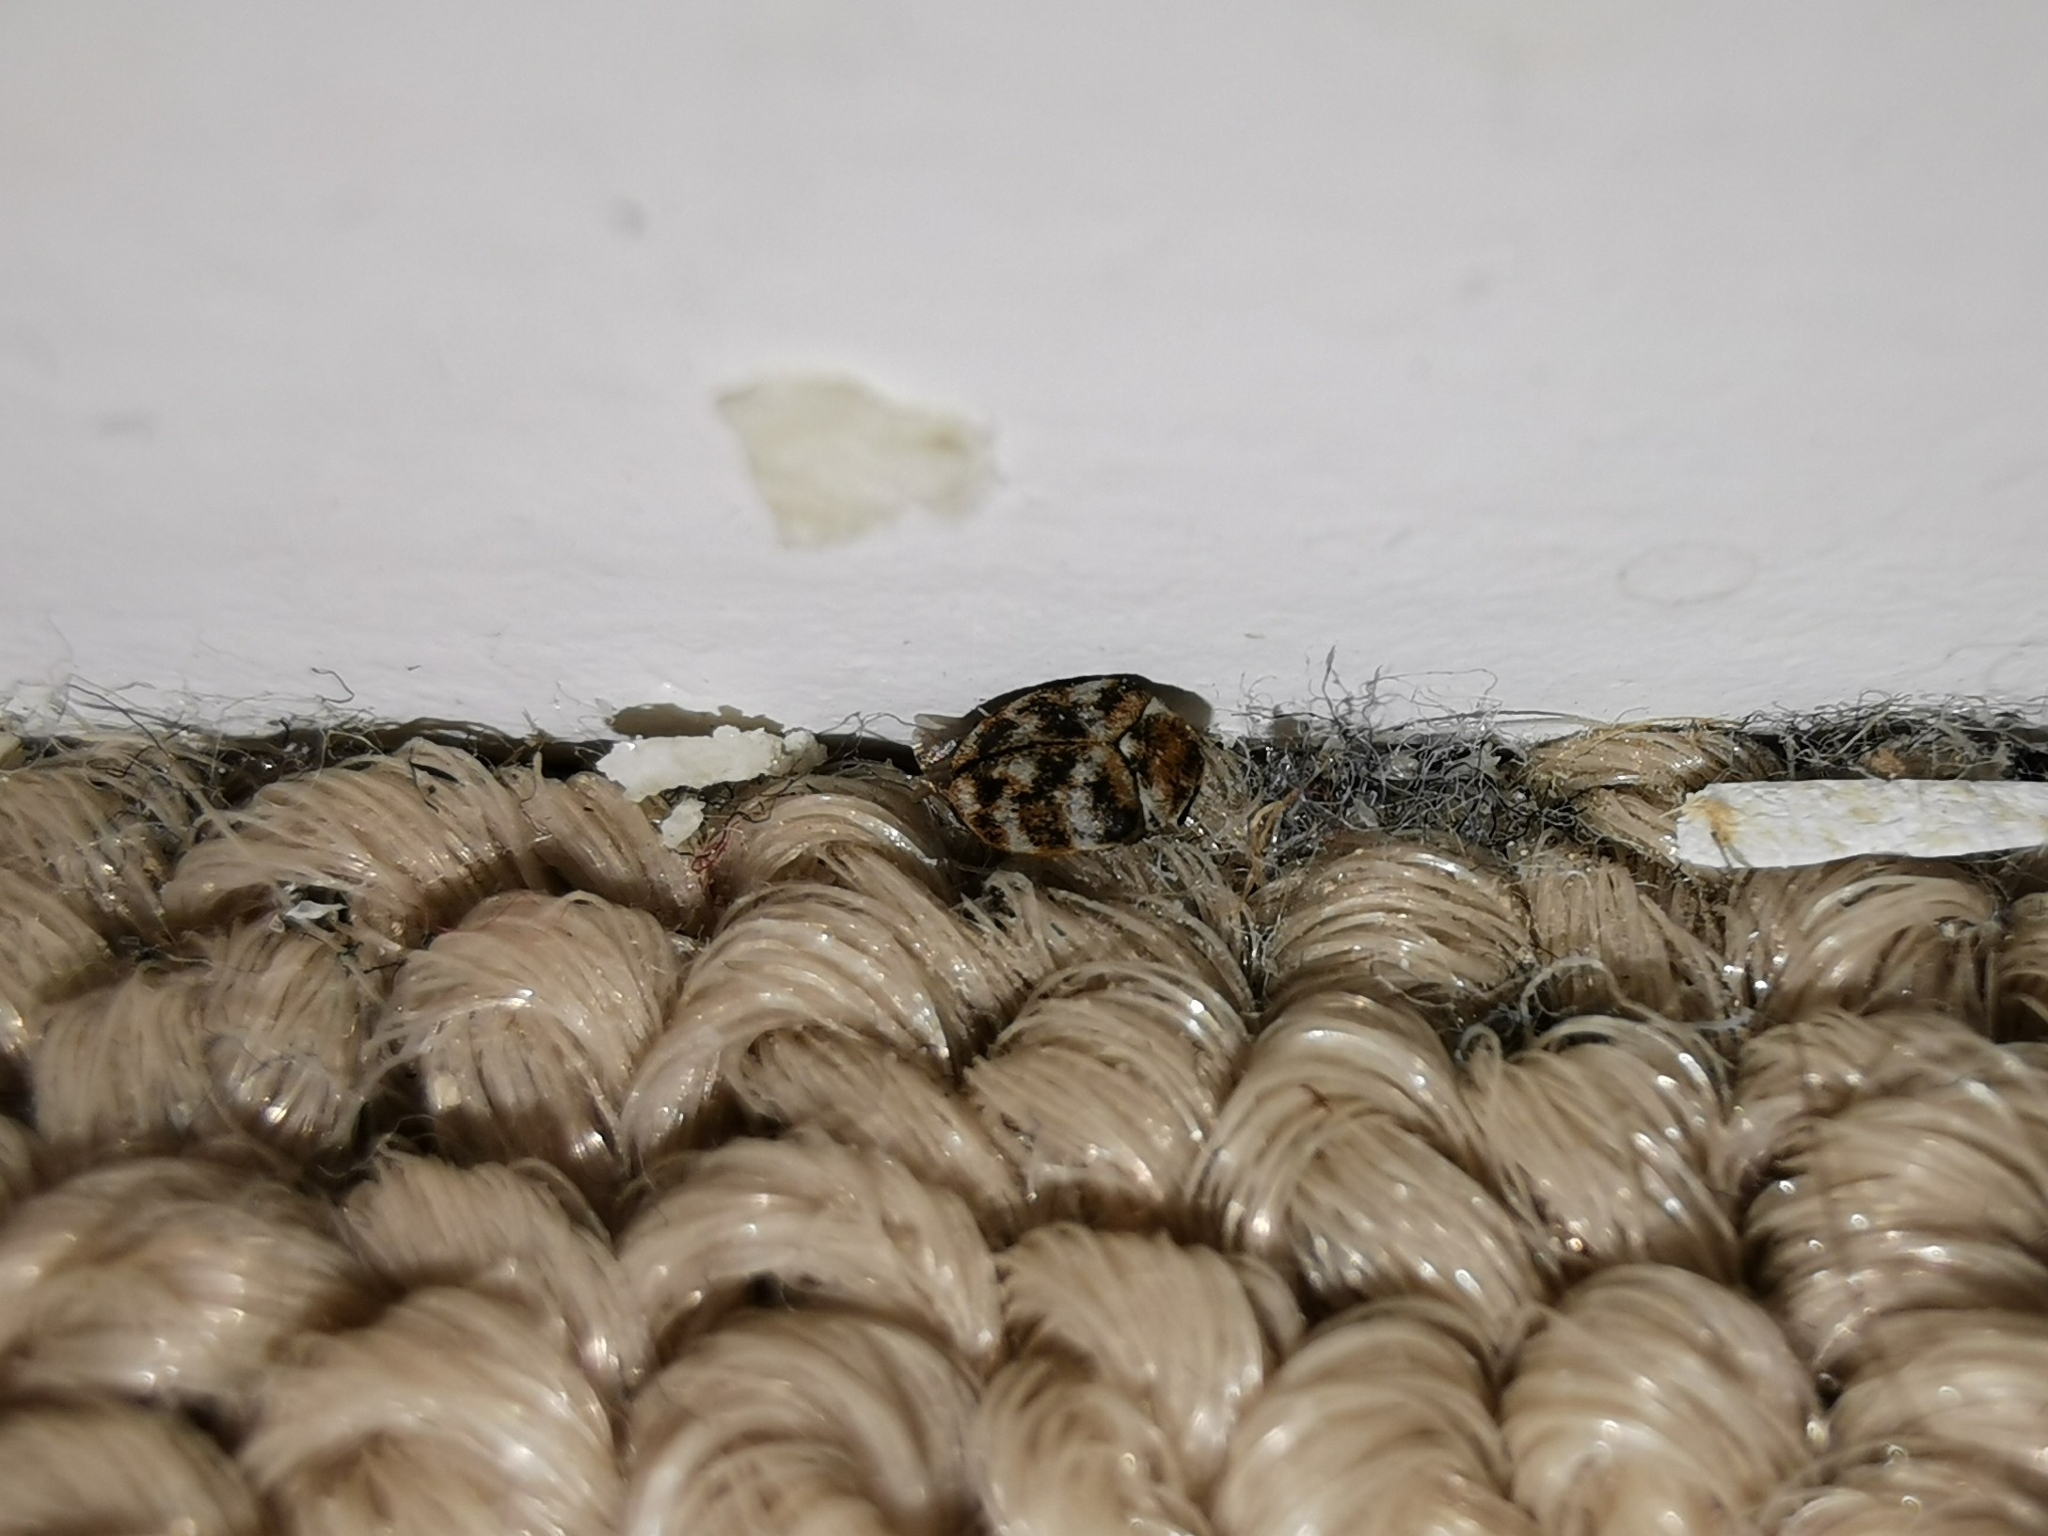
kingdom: Animalia
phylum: Arthropoda
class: Insecta
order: Coleoptera
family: Dermestidae
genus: Anthrenus
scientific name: Anthrenus verbasci
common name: Varied carpet beetle
